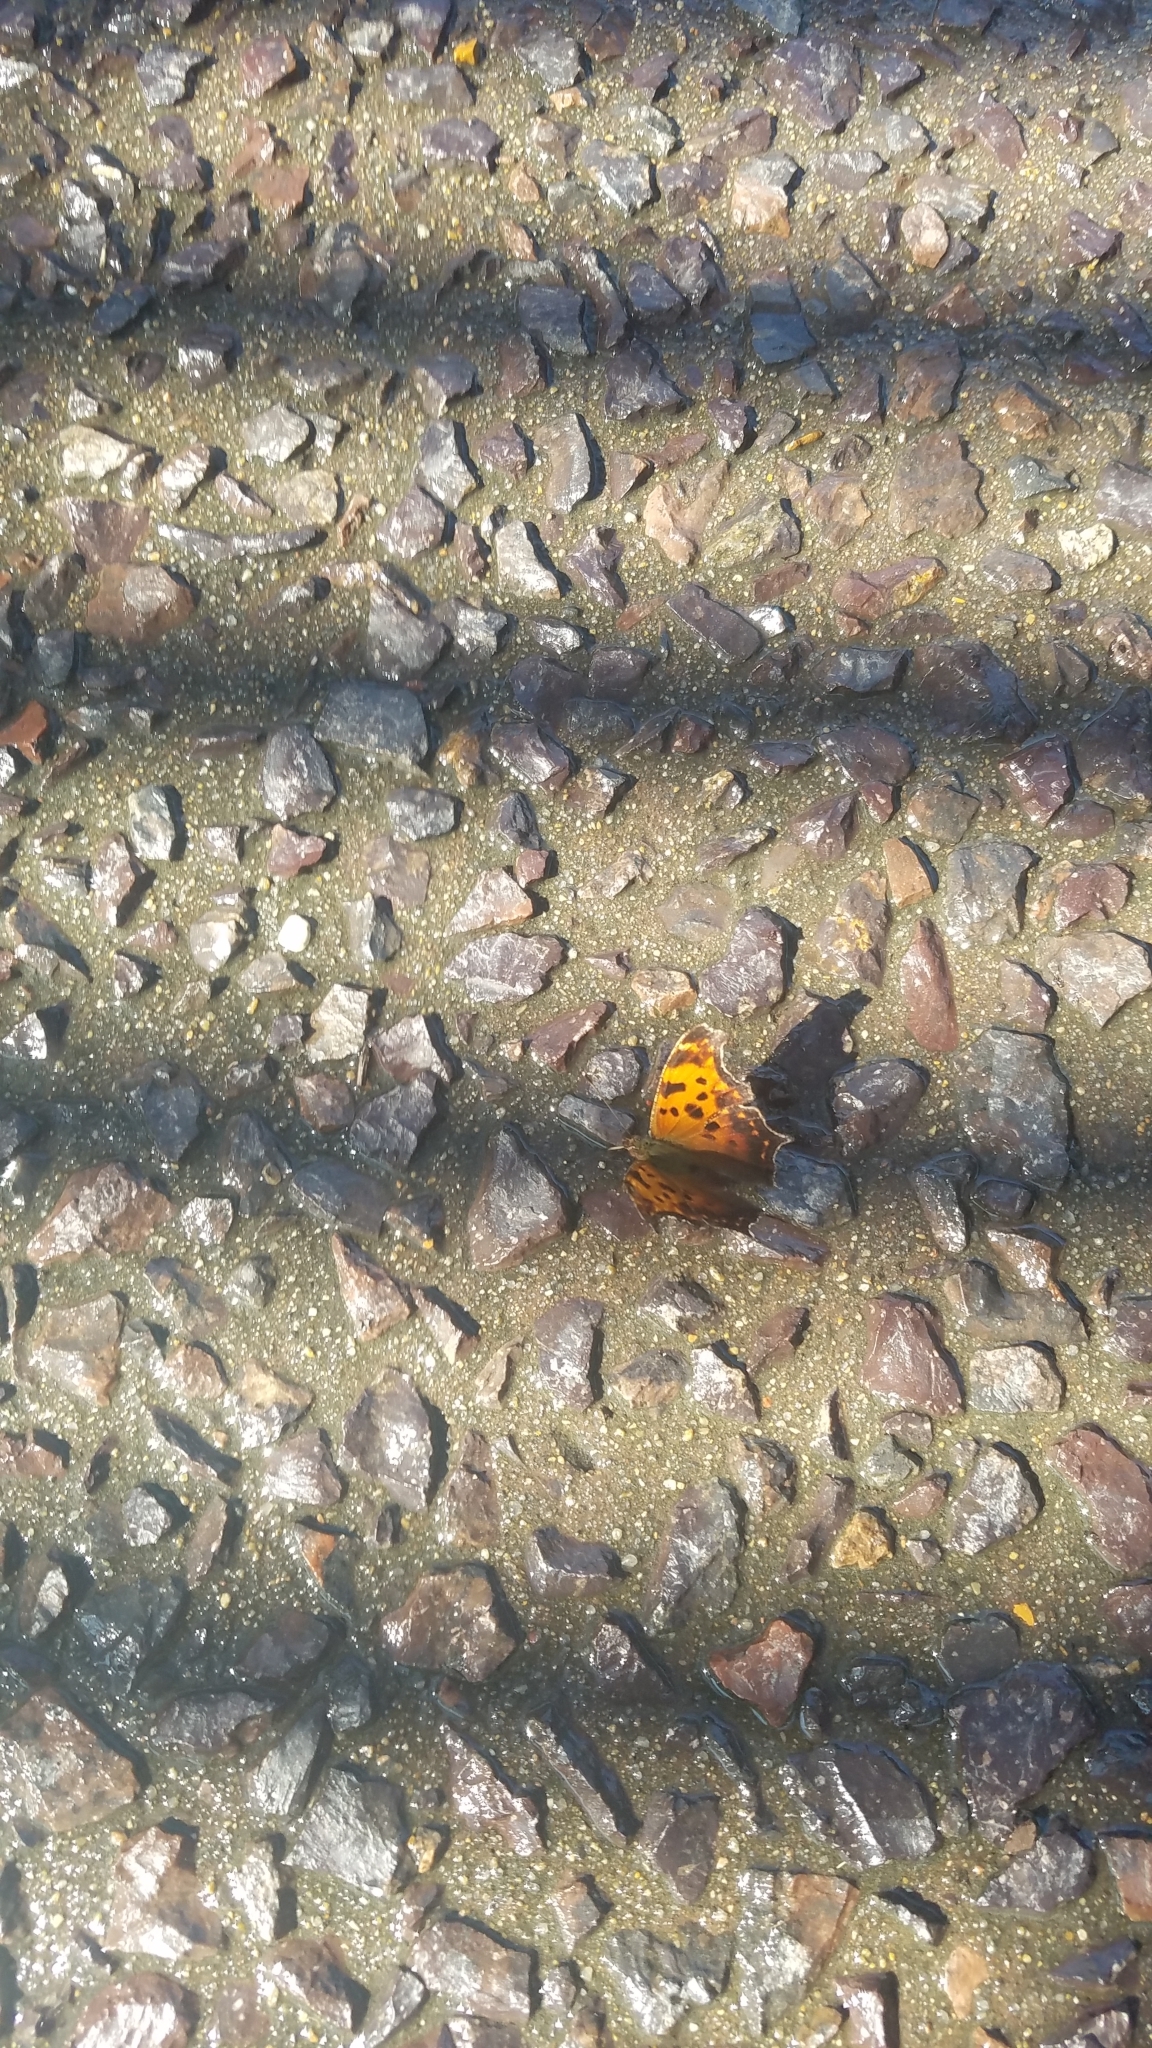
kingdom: Animalia
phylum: Arthropoda
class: Insecta
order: Lepidoptera
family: Nymphalidae
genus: Polygonia
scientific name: Polygonia comma
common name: Eastern comma
